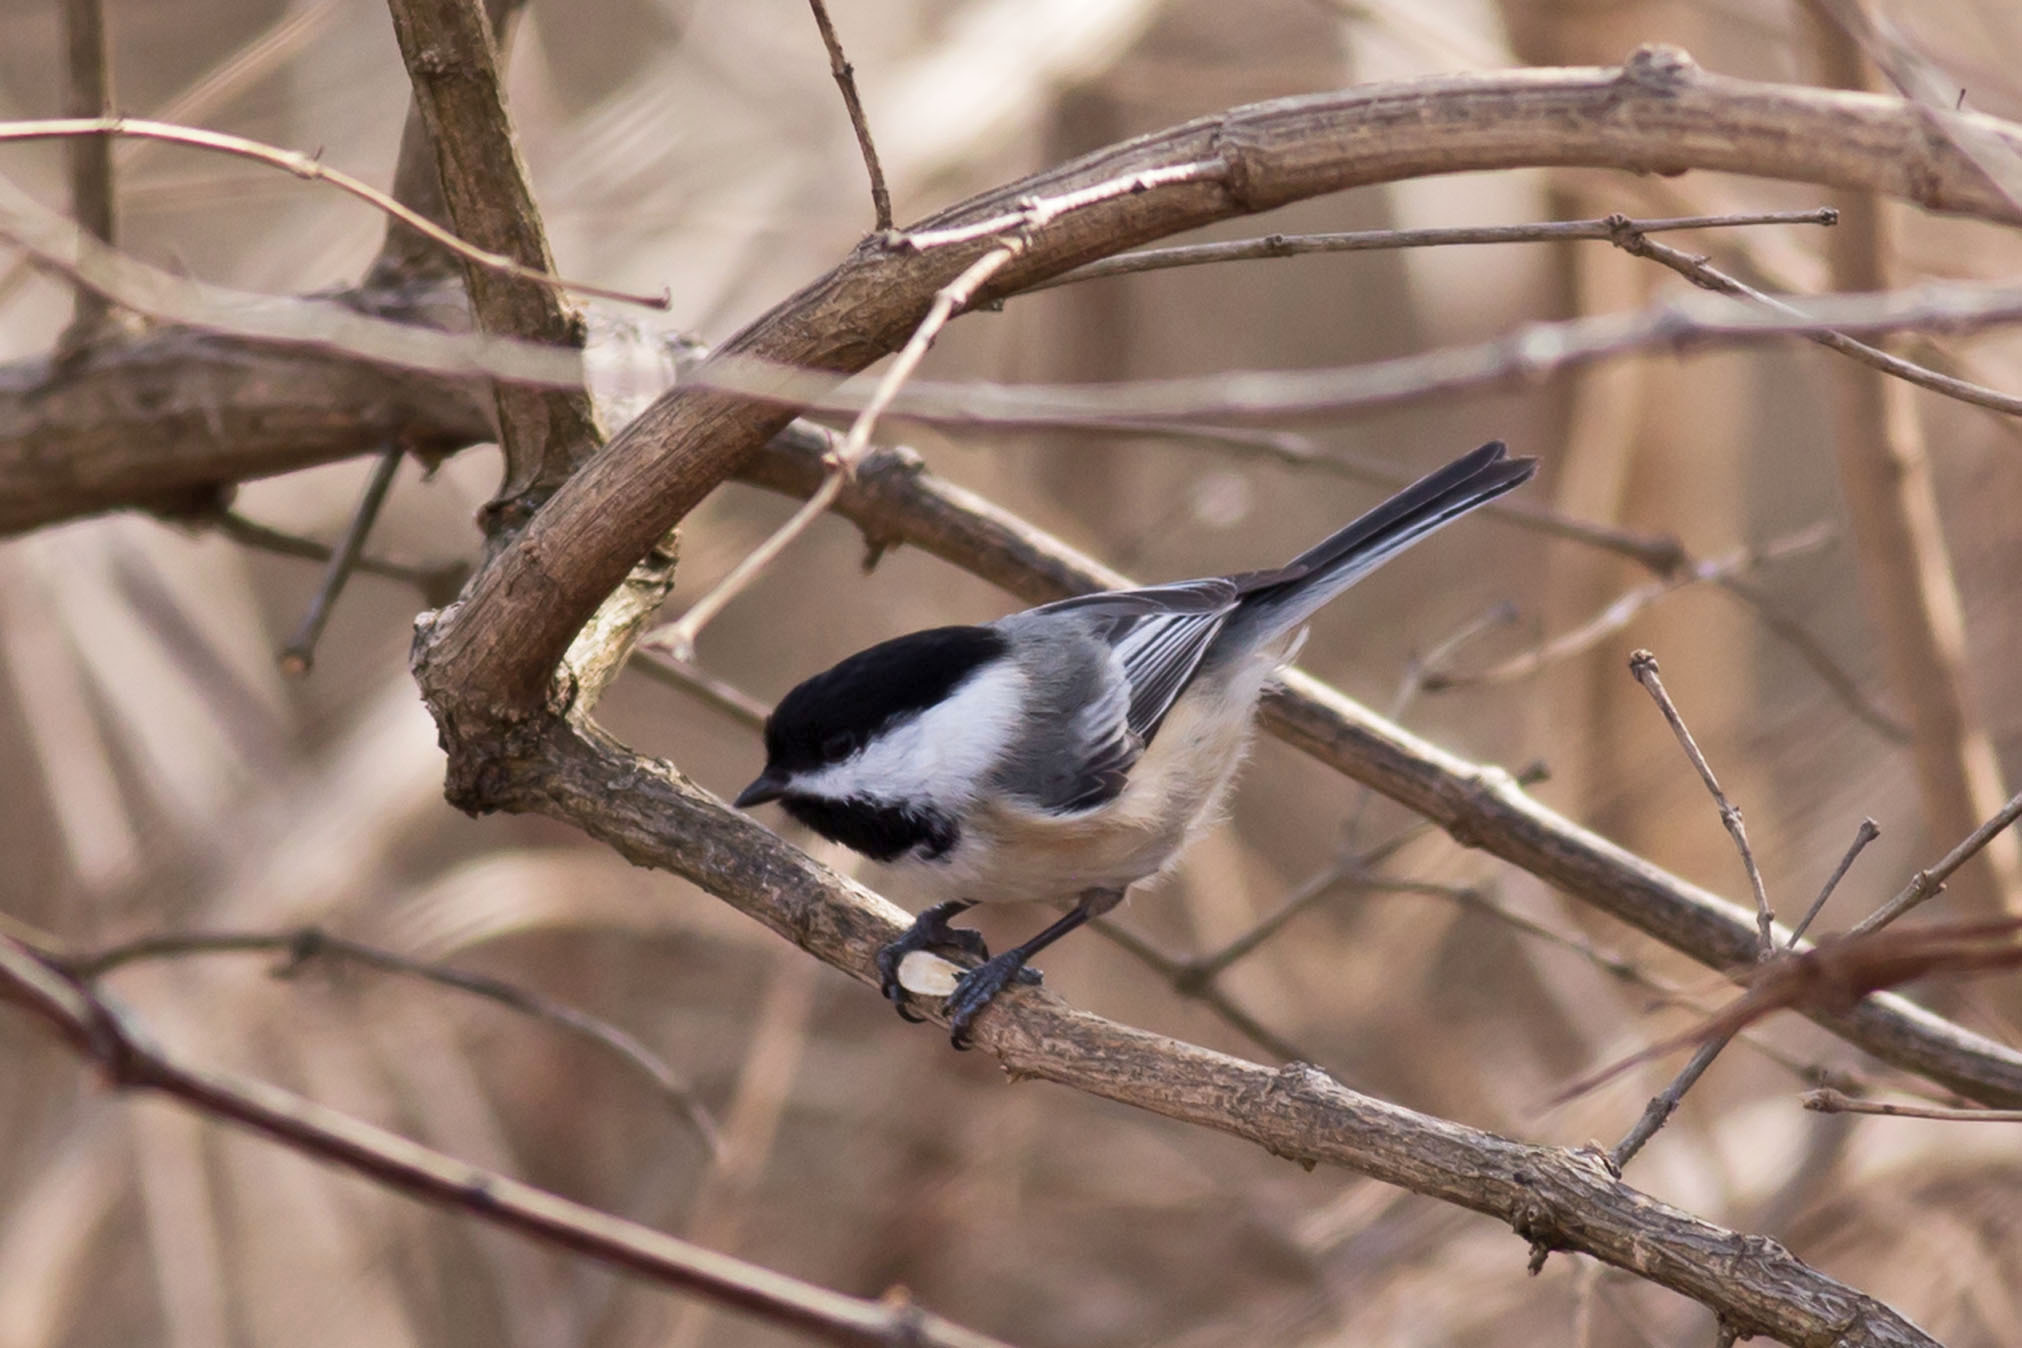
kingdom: Animalia
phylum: Chordata
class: Aves
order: Passeriformes
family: Paridae
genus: Poecile
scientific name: Poecile atricapillus
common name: Black-capped chickadee
